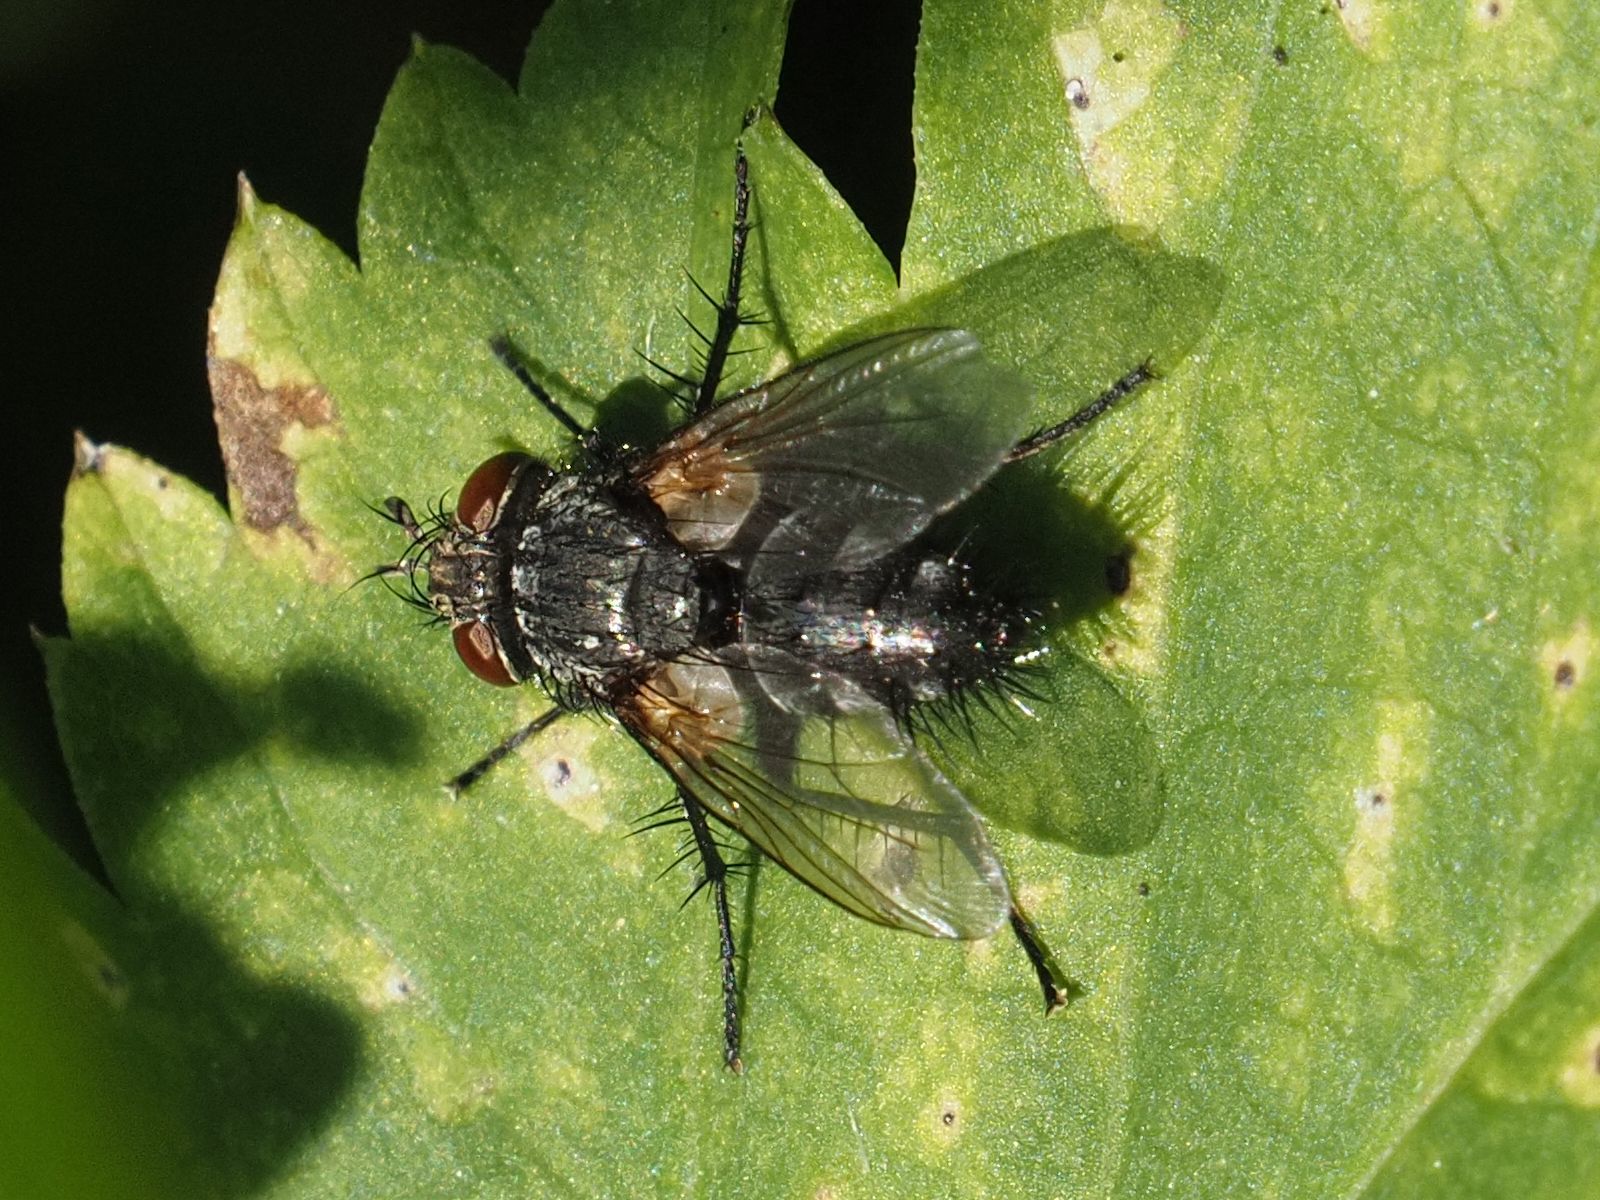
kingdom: Animalia
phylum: Arthropoda
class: Insecta
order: Diptera
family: Tachinidae
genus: Voria
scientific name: Voria ruralis
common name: Parasitic fly
